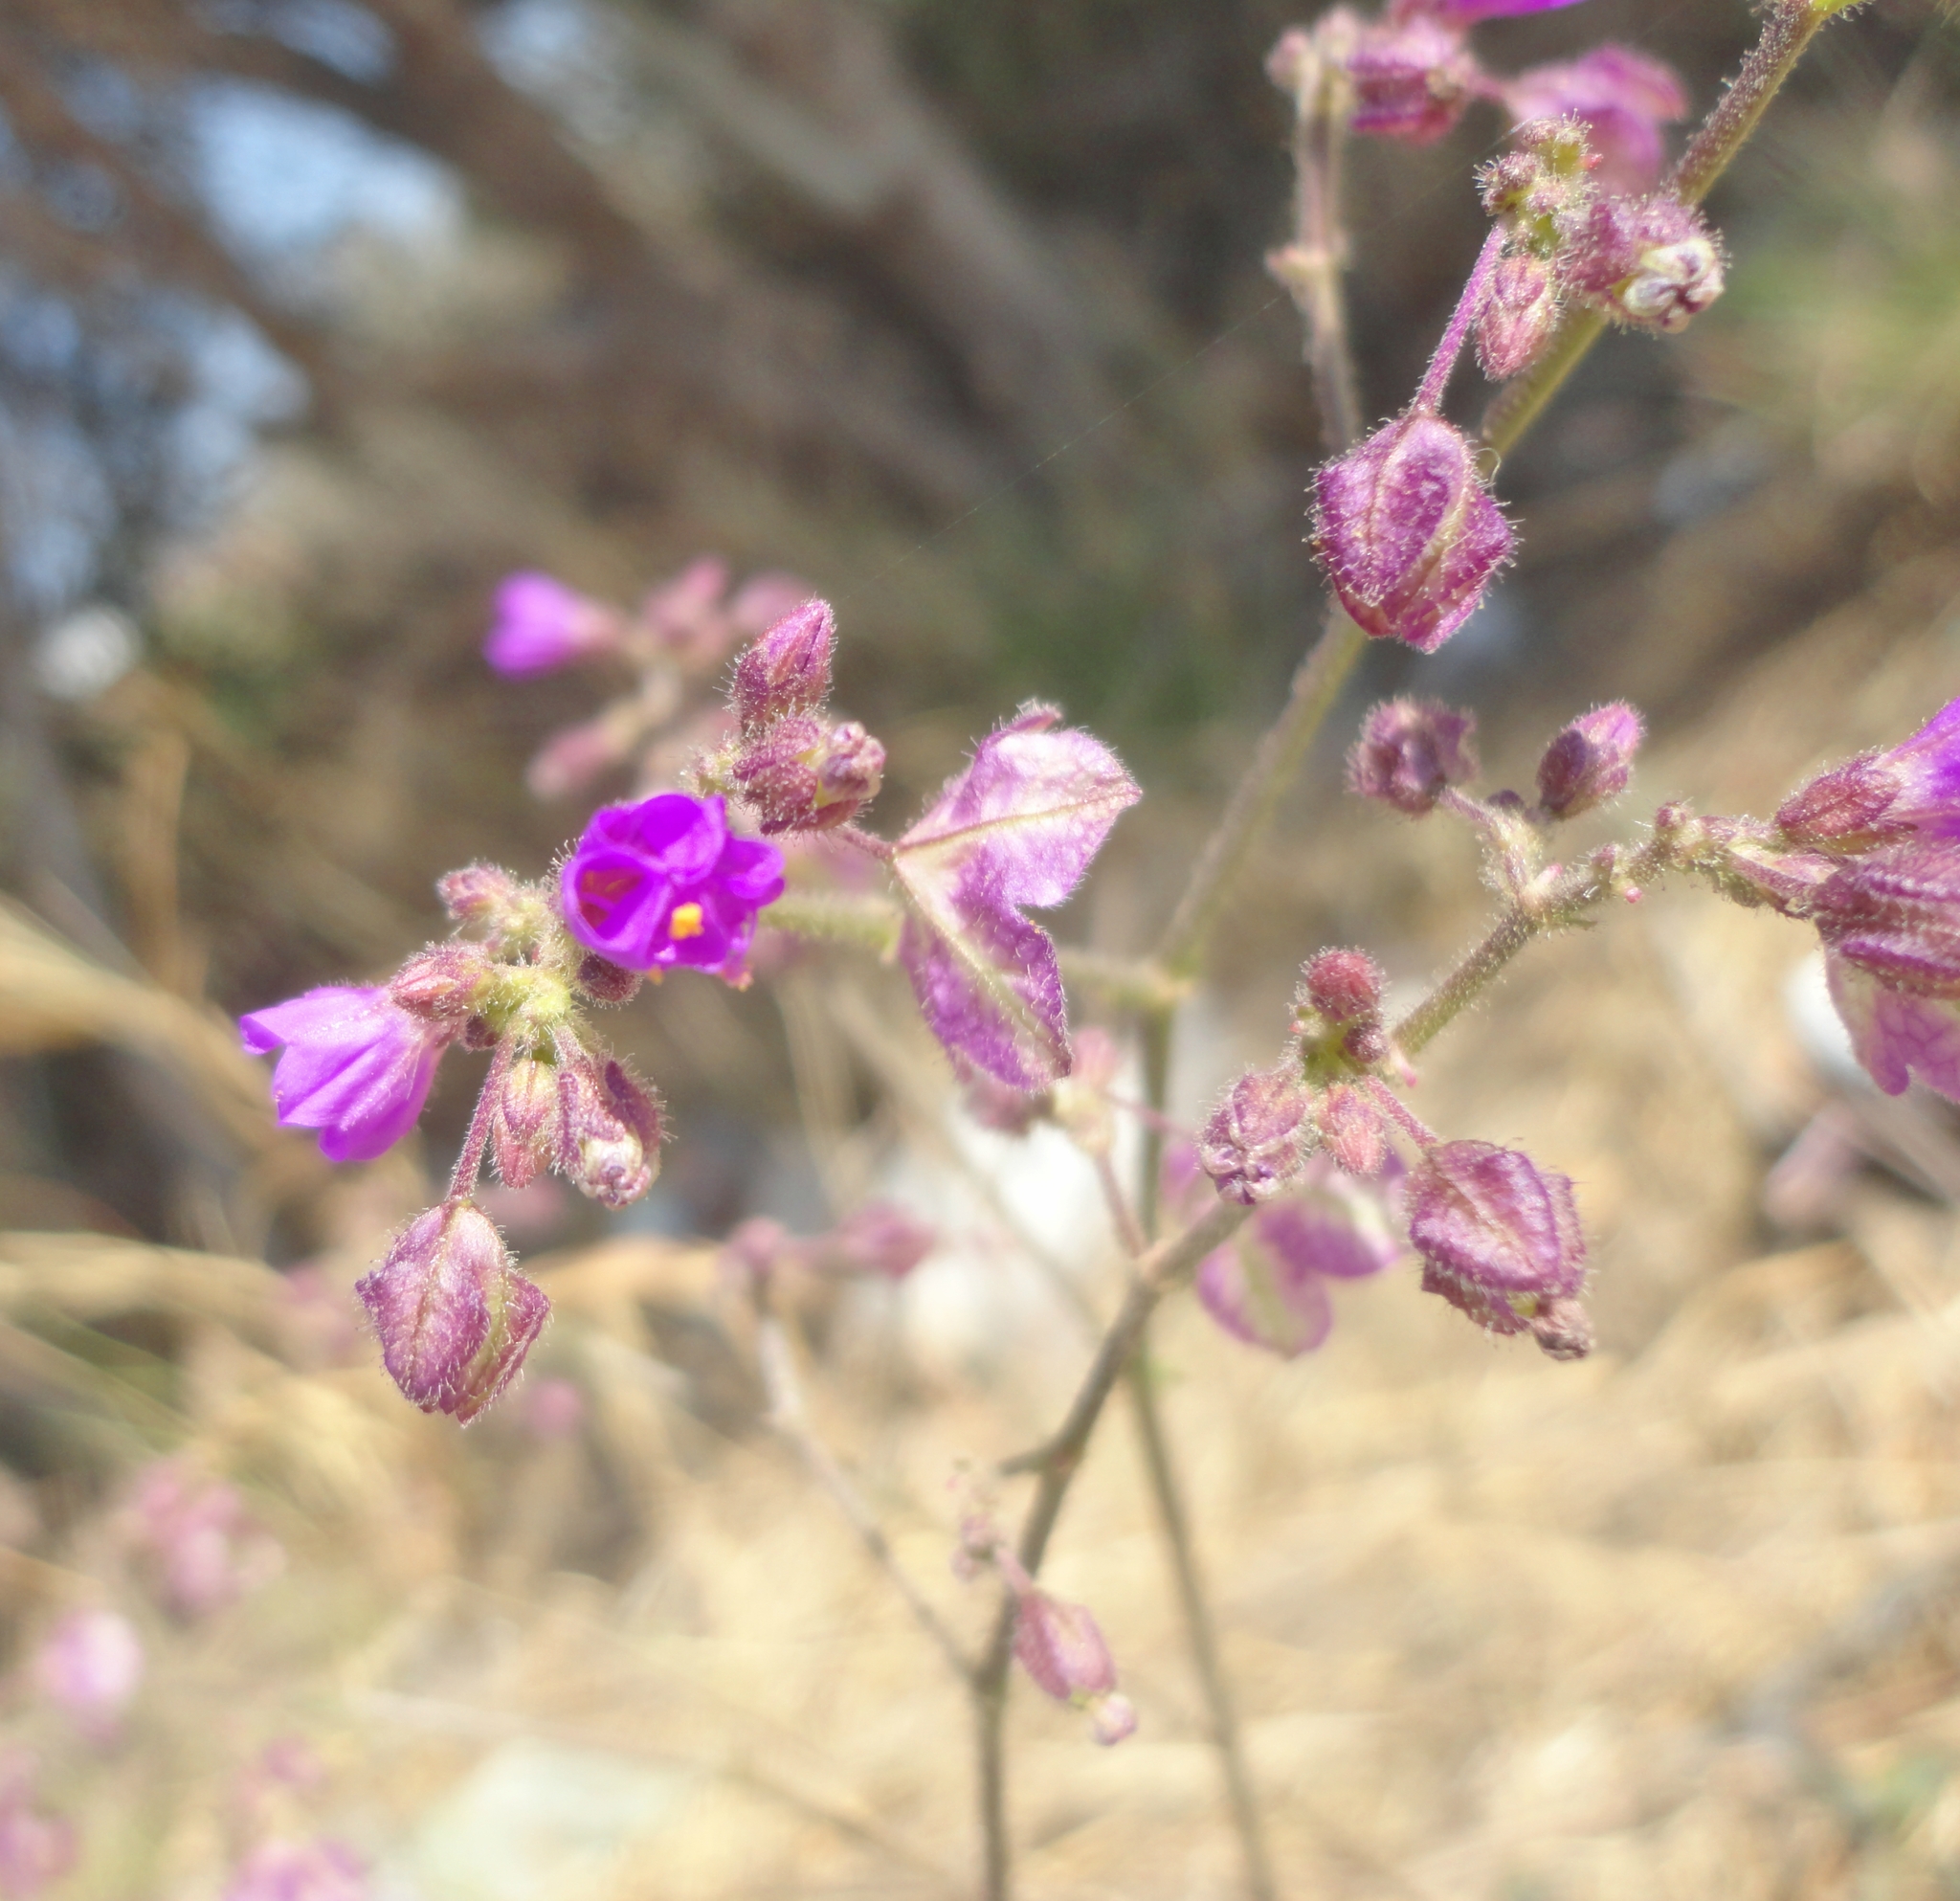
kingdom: Plantae
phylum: Tracheophyta
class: Magnoliopsida
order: Caryophyllales
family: Nyctaginaceae
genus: Mirabilis
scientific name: Mirabilis viscosa
